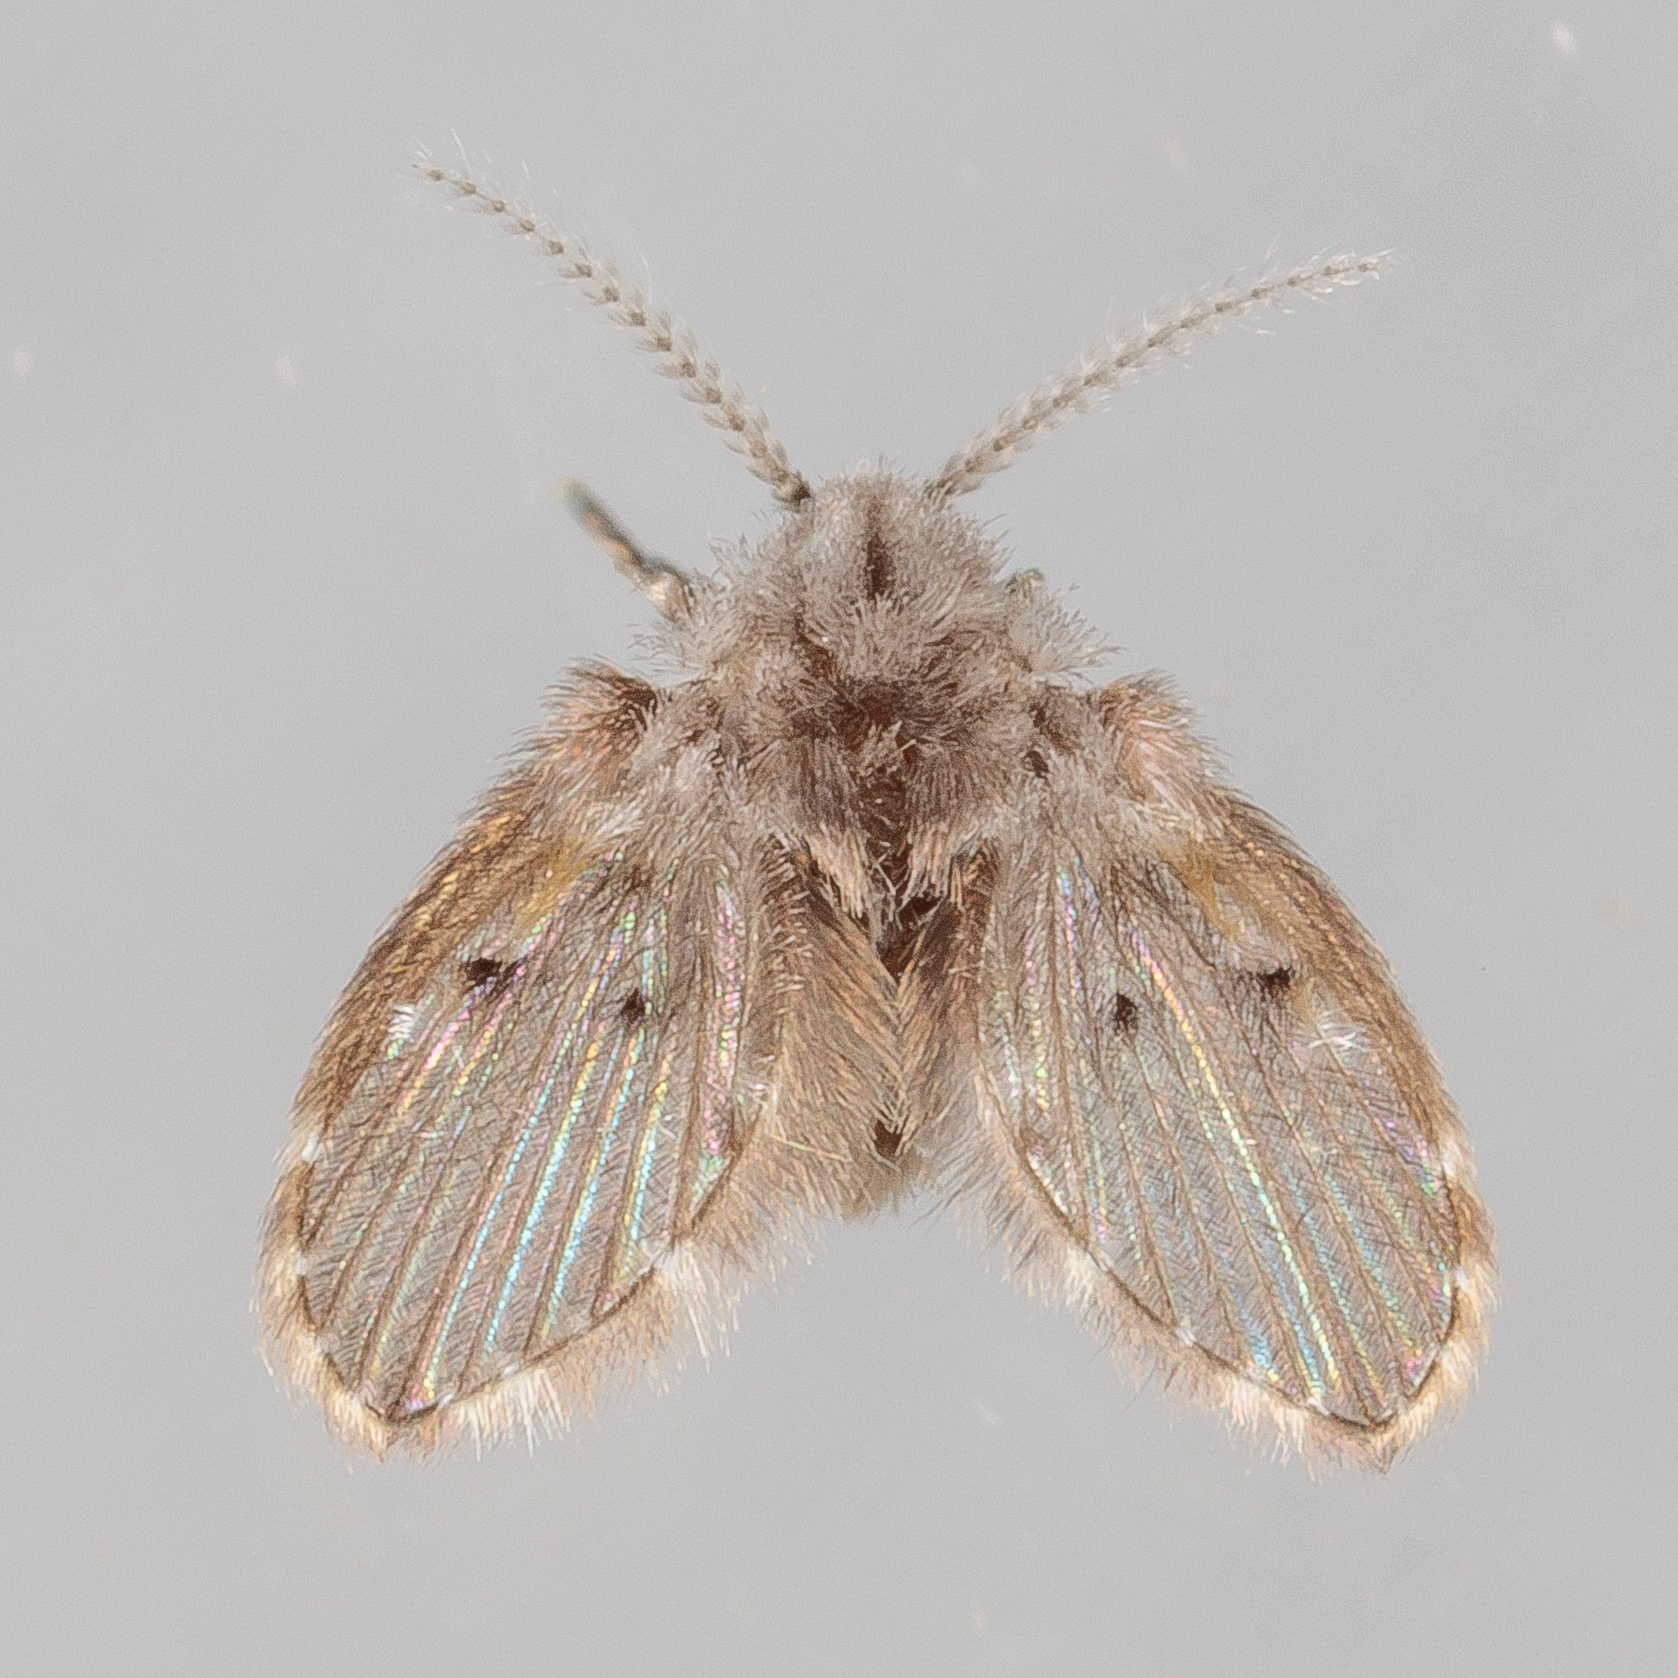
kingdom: Animalia
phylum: Arthropoda
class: Insecta
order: Diptera
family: Psychodidae
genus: Clogmia
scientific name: Clogmia albipunctatus
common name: White-spotted moth fly
